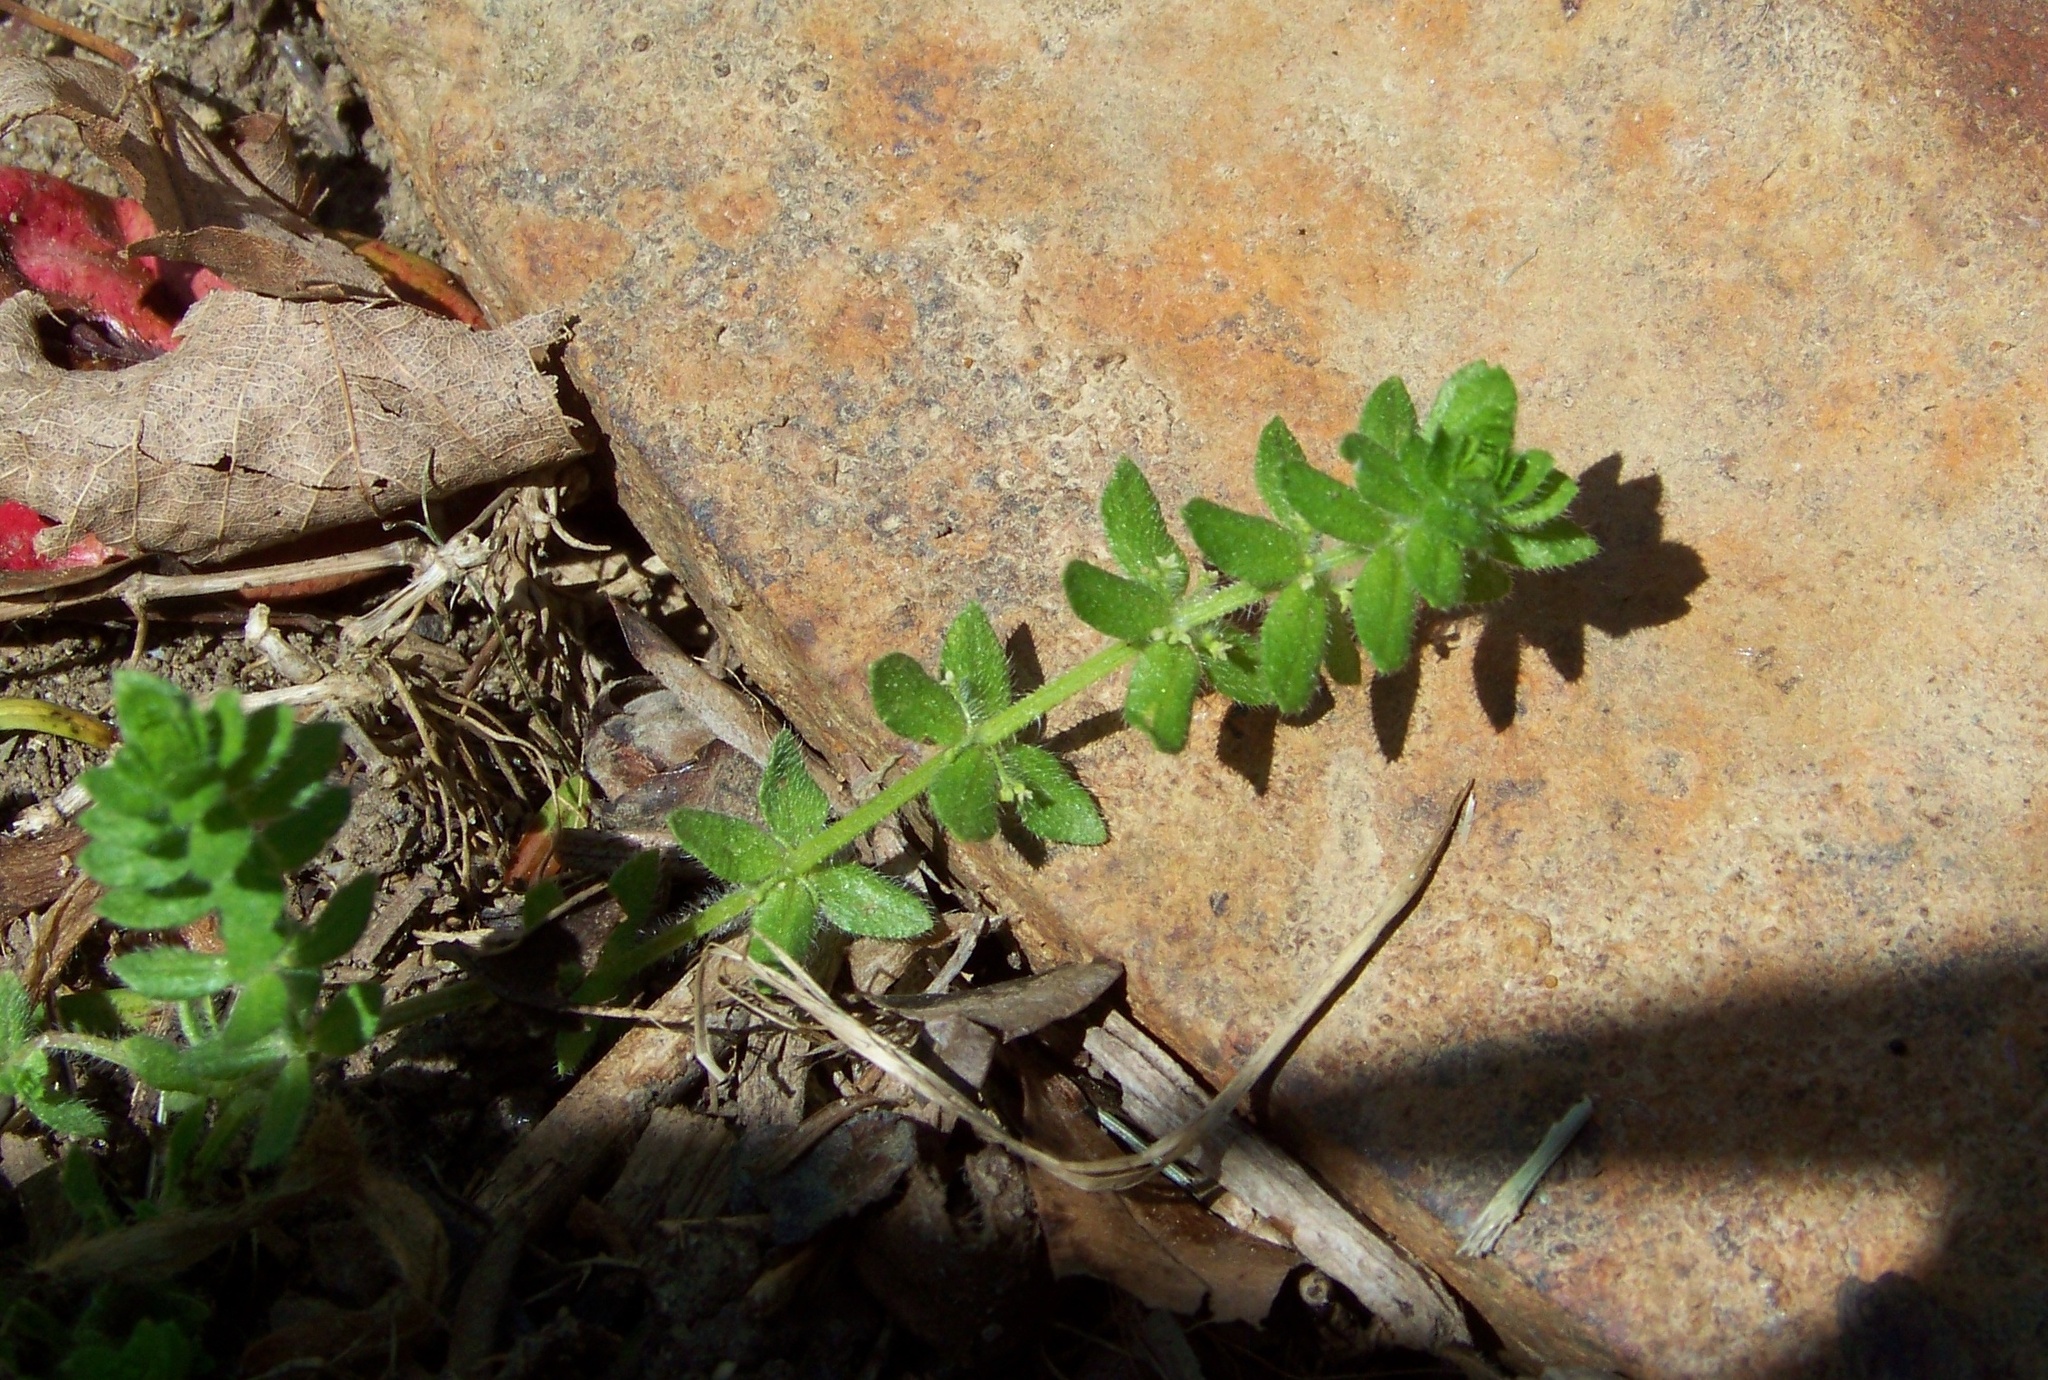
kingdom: Plantae
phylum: Tracheophyta
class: Magnoliopsida
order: Gentianales
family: Rubiaceae
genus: Cruciata
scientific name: Cruciata pedemontana
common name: Piedmont bedstraw
